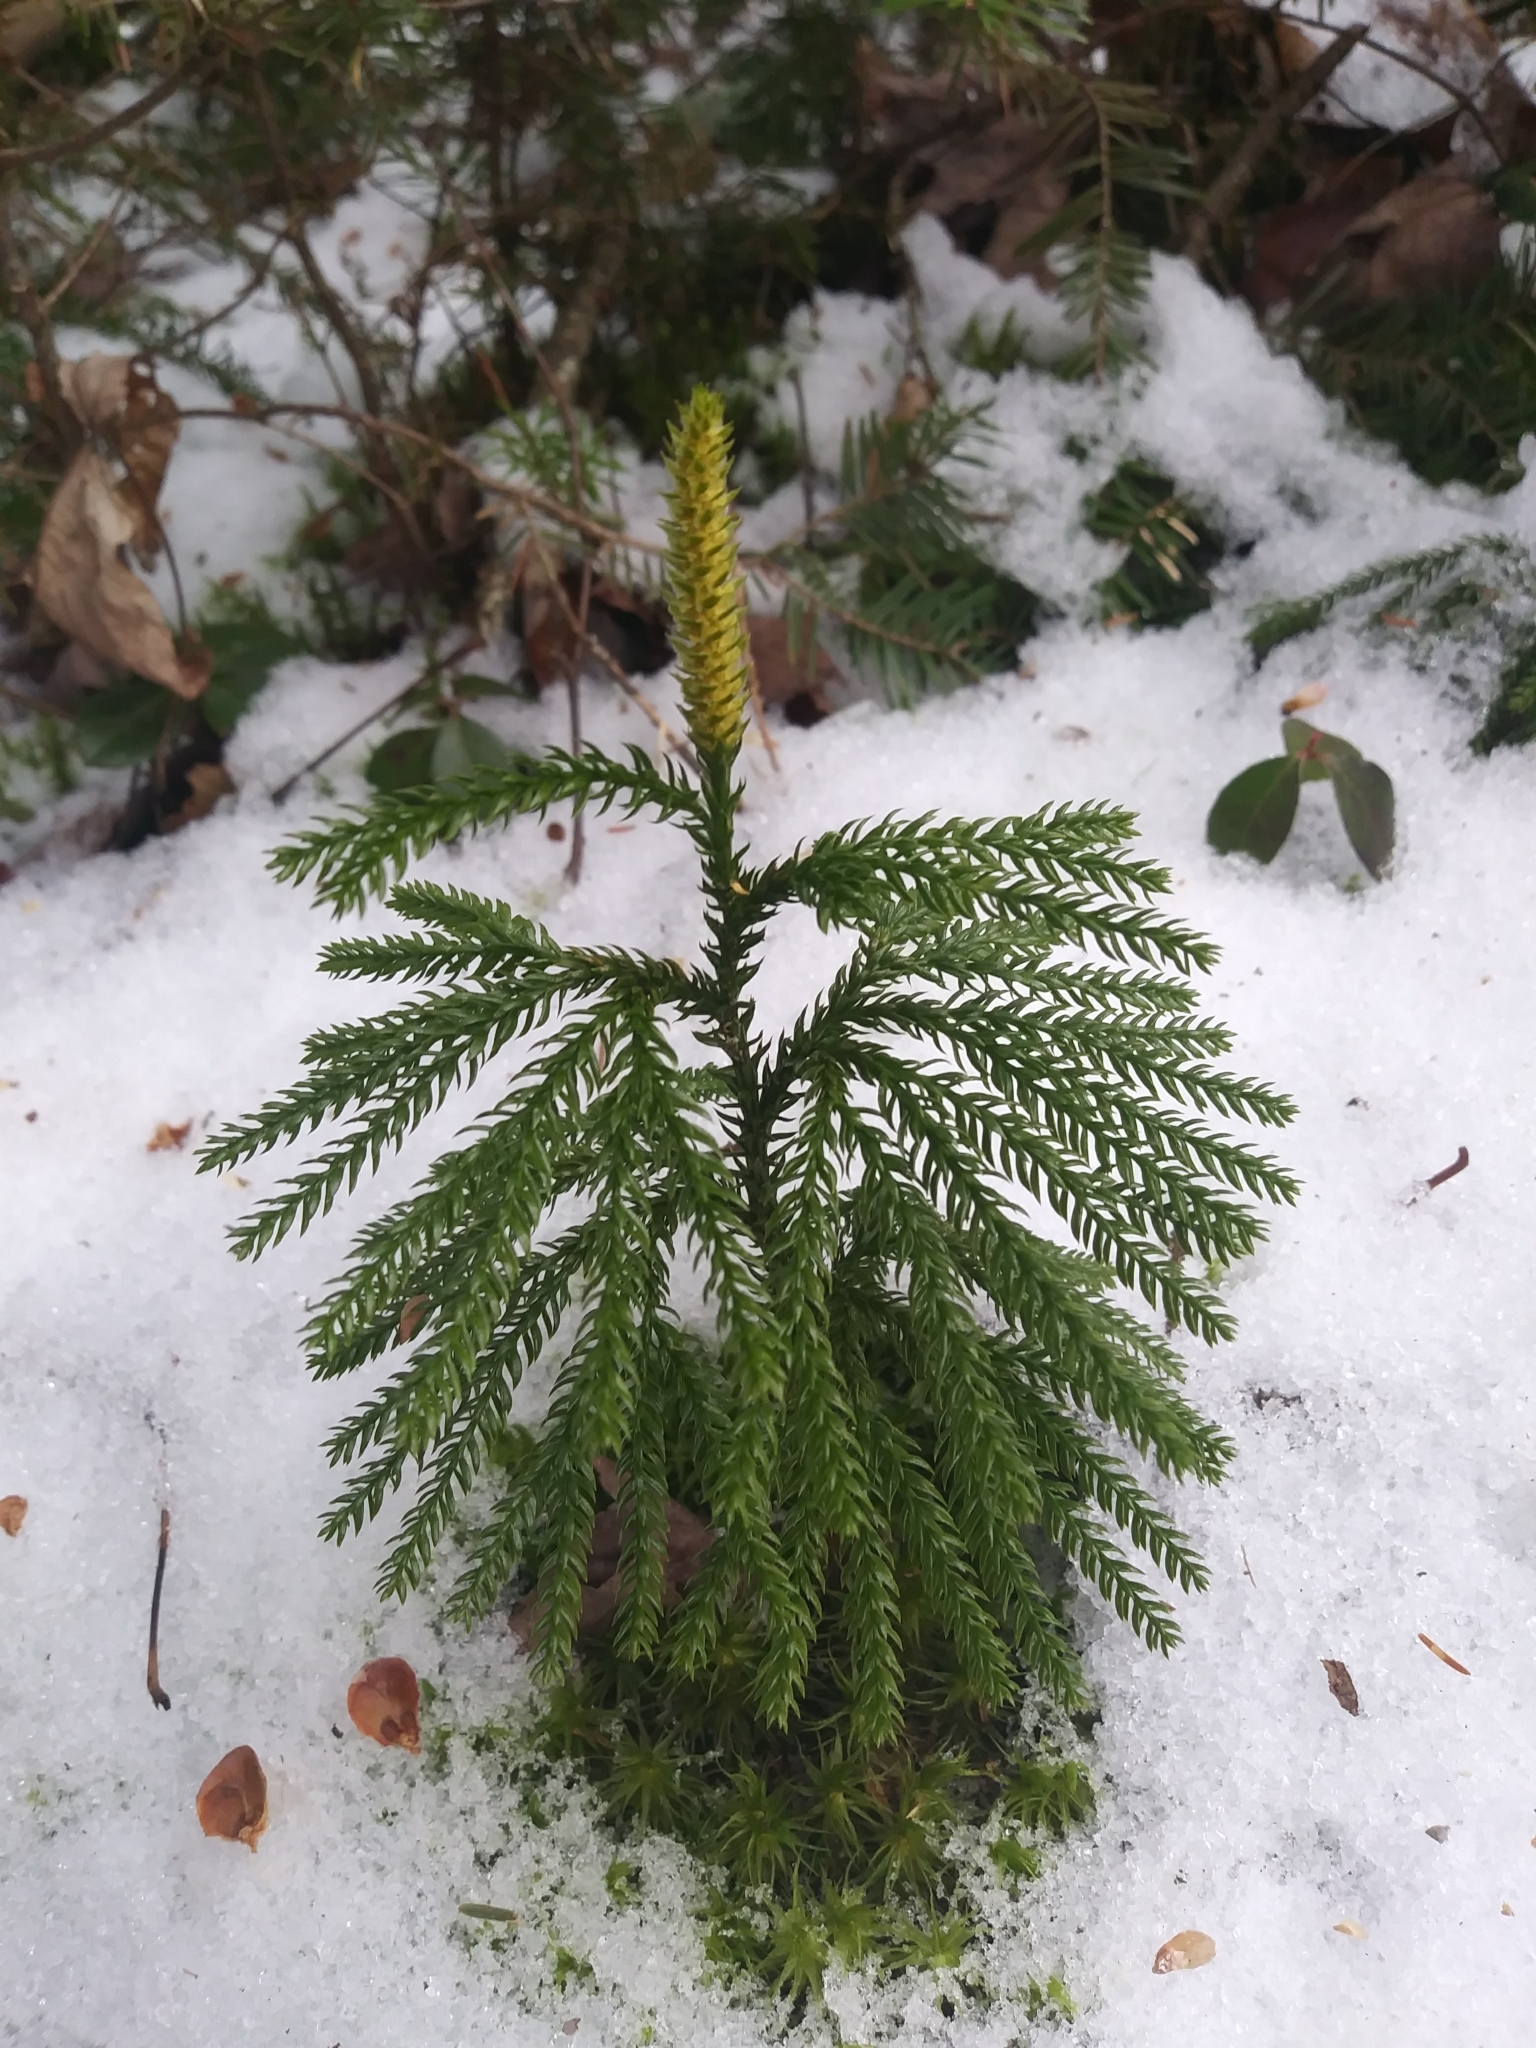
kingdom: Plantae
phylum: Tracheophyta
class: Lycopodiopsida
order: Lycopodiales
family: Lycopodiaceae
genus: Dendrolycopodium
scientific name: Dendrolycopodium dendroideum
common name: Northern tree-clubmoss
